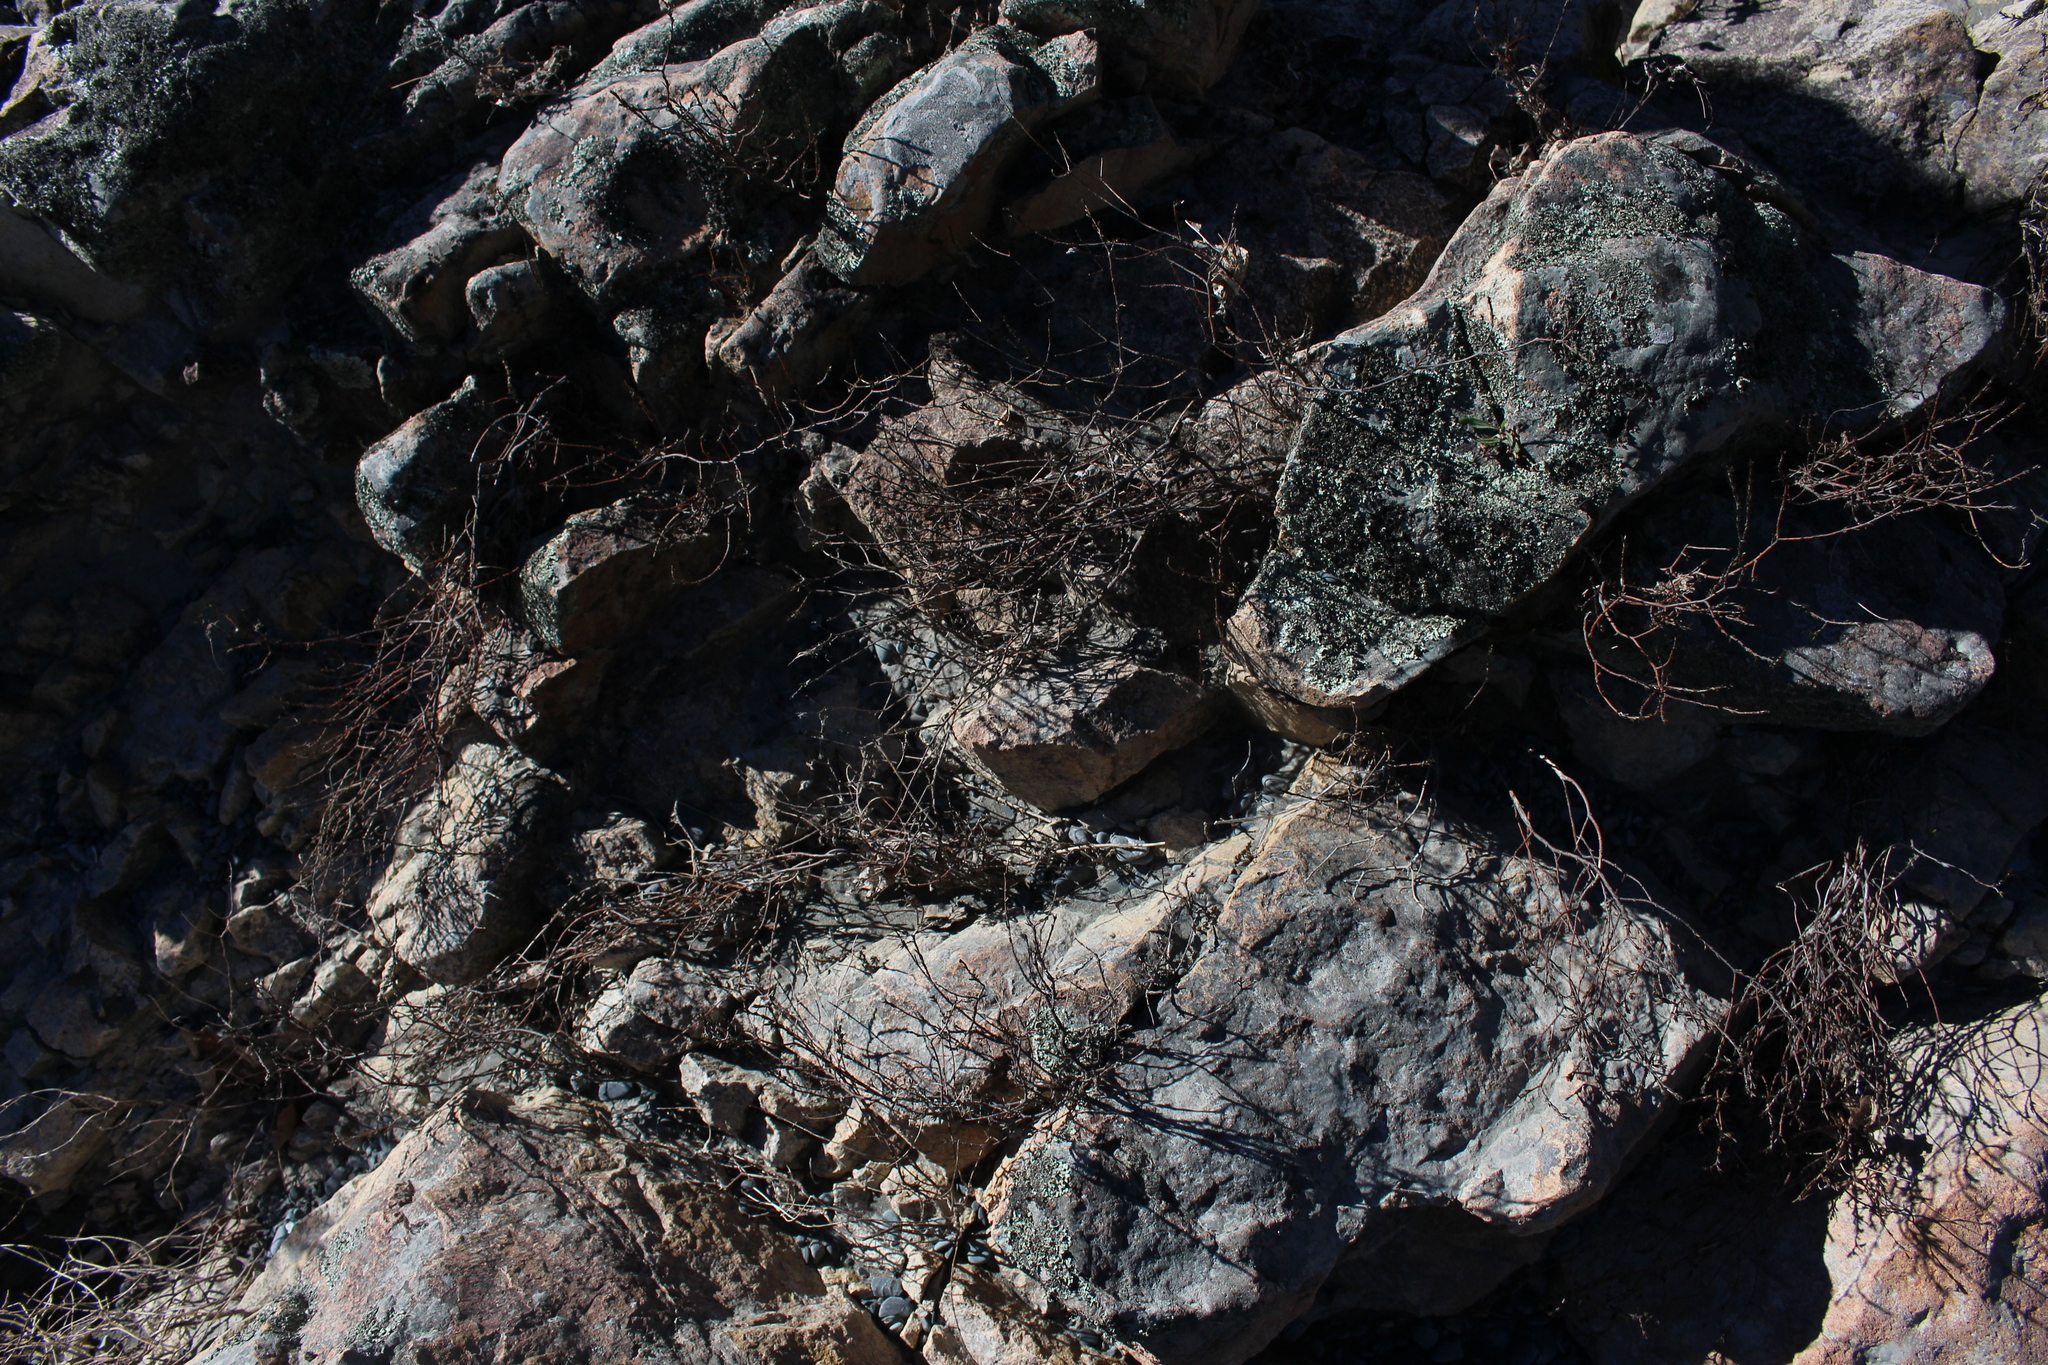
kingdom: Plantae
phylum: Tracheophyta
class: Magnoliopsida
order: Gentianales
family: Rubiaceae
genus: Coprosma
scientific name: Coprosma acerosa
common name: Sand coprosma
